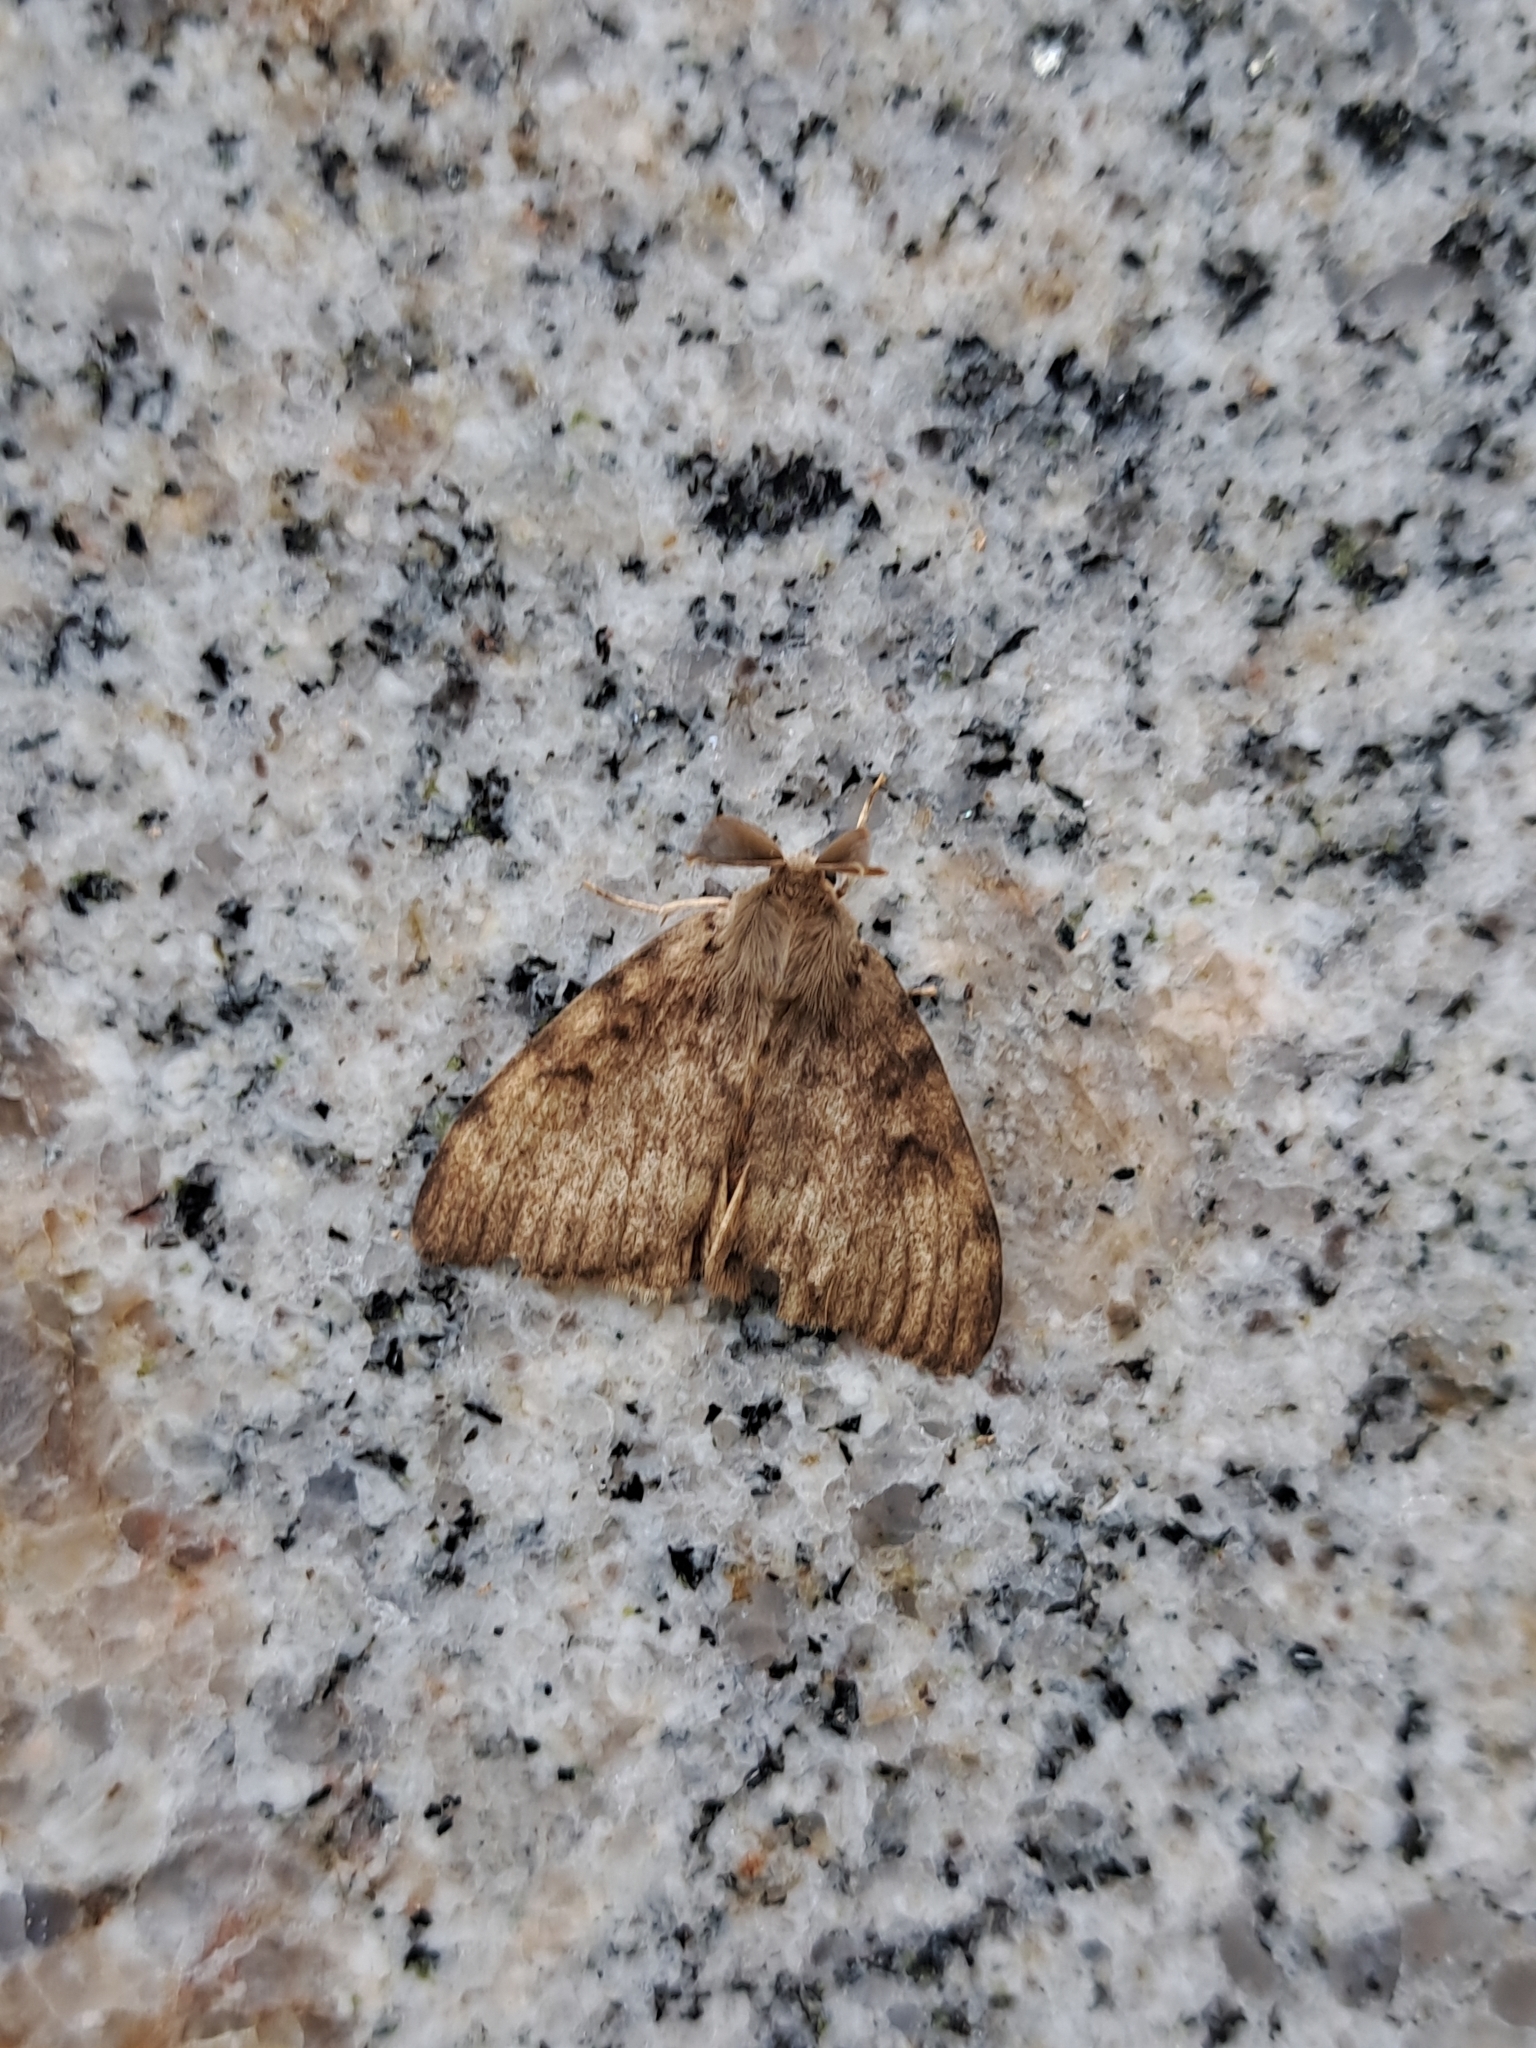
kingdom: Animalia
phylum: Arthropoda
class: Insecta
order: Lepidoptera
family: Erebidae
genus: Lymantria
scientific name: Lymantria dispar
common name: Gypsy moth
